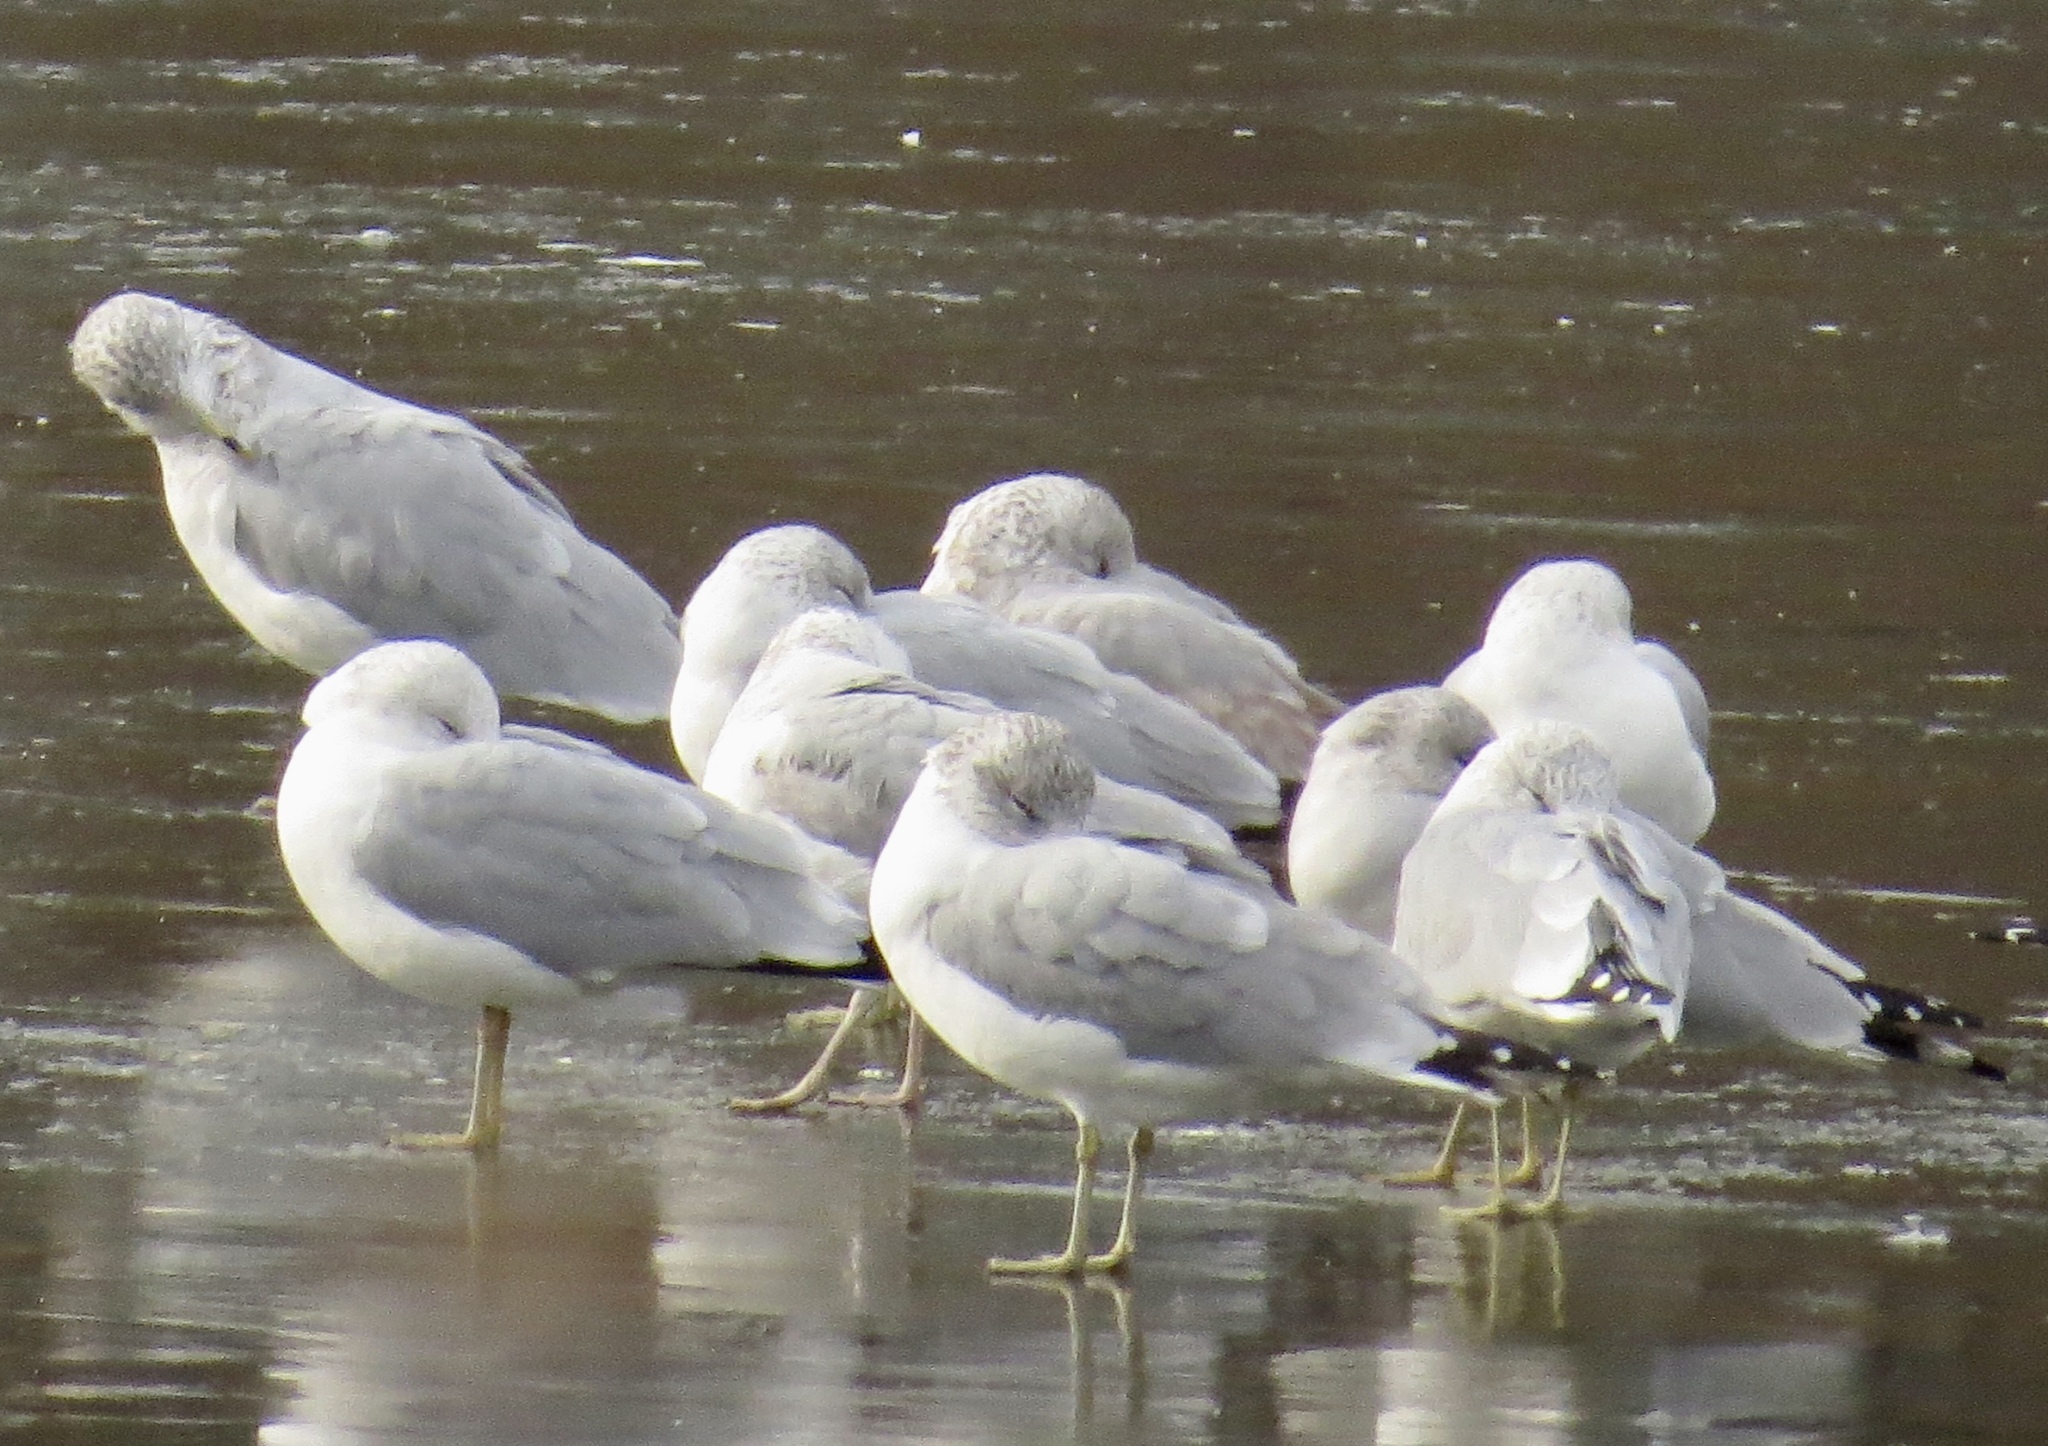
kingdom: Animalia
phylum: Chordata
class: Aves
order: Charadriiformes
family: Laridae
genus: Larus
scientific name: Larus delawarensis
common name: Ring-billed gull
